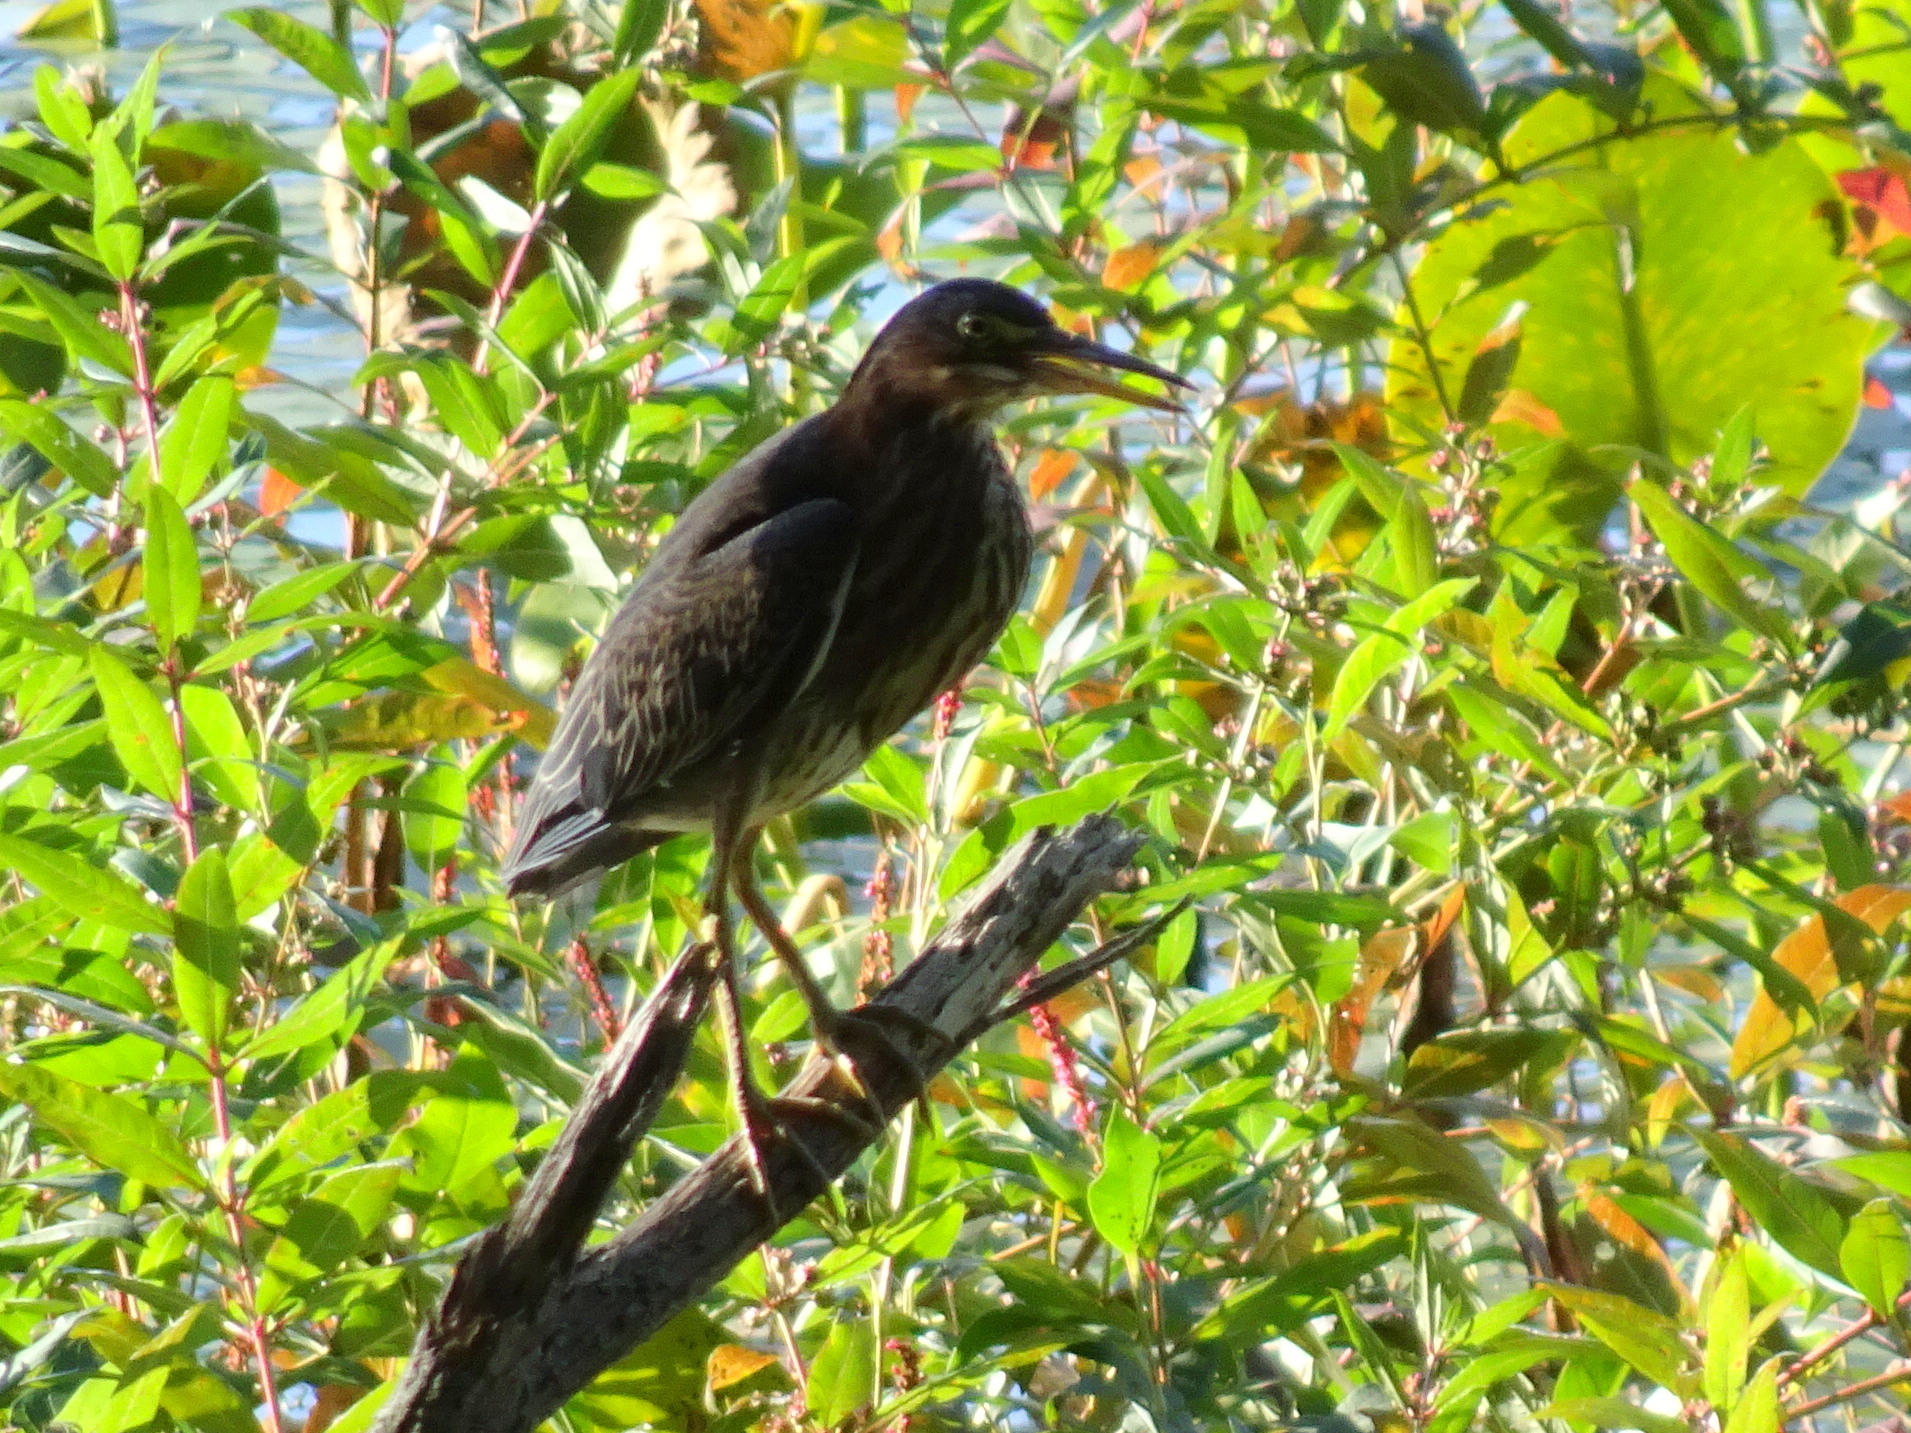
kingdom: Animalia
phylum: Chordata
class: Aves
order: Pelecaniformes
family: Ardeidae
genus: Butorides
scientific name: Butorides virescens
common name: Green heron
